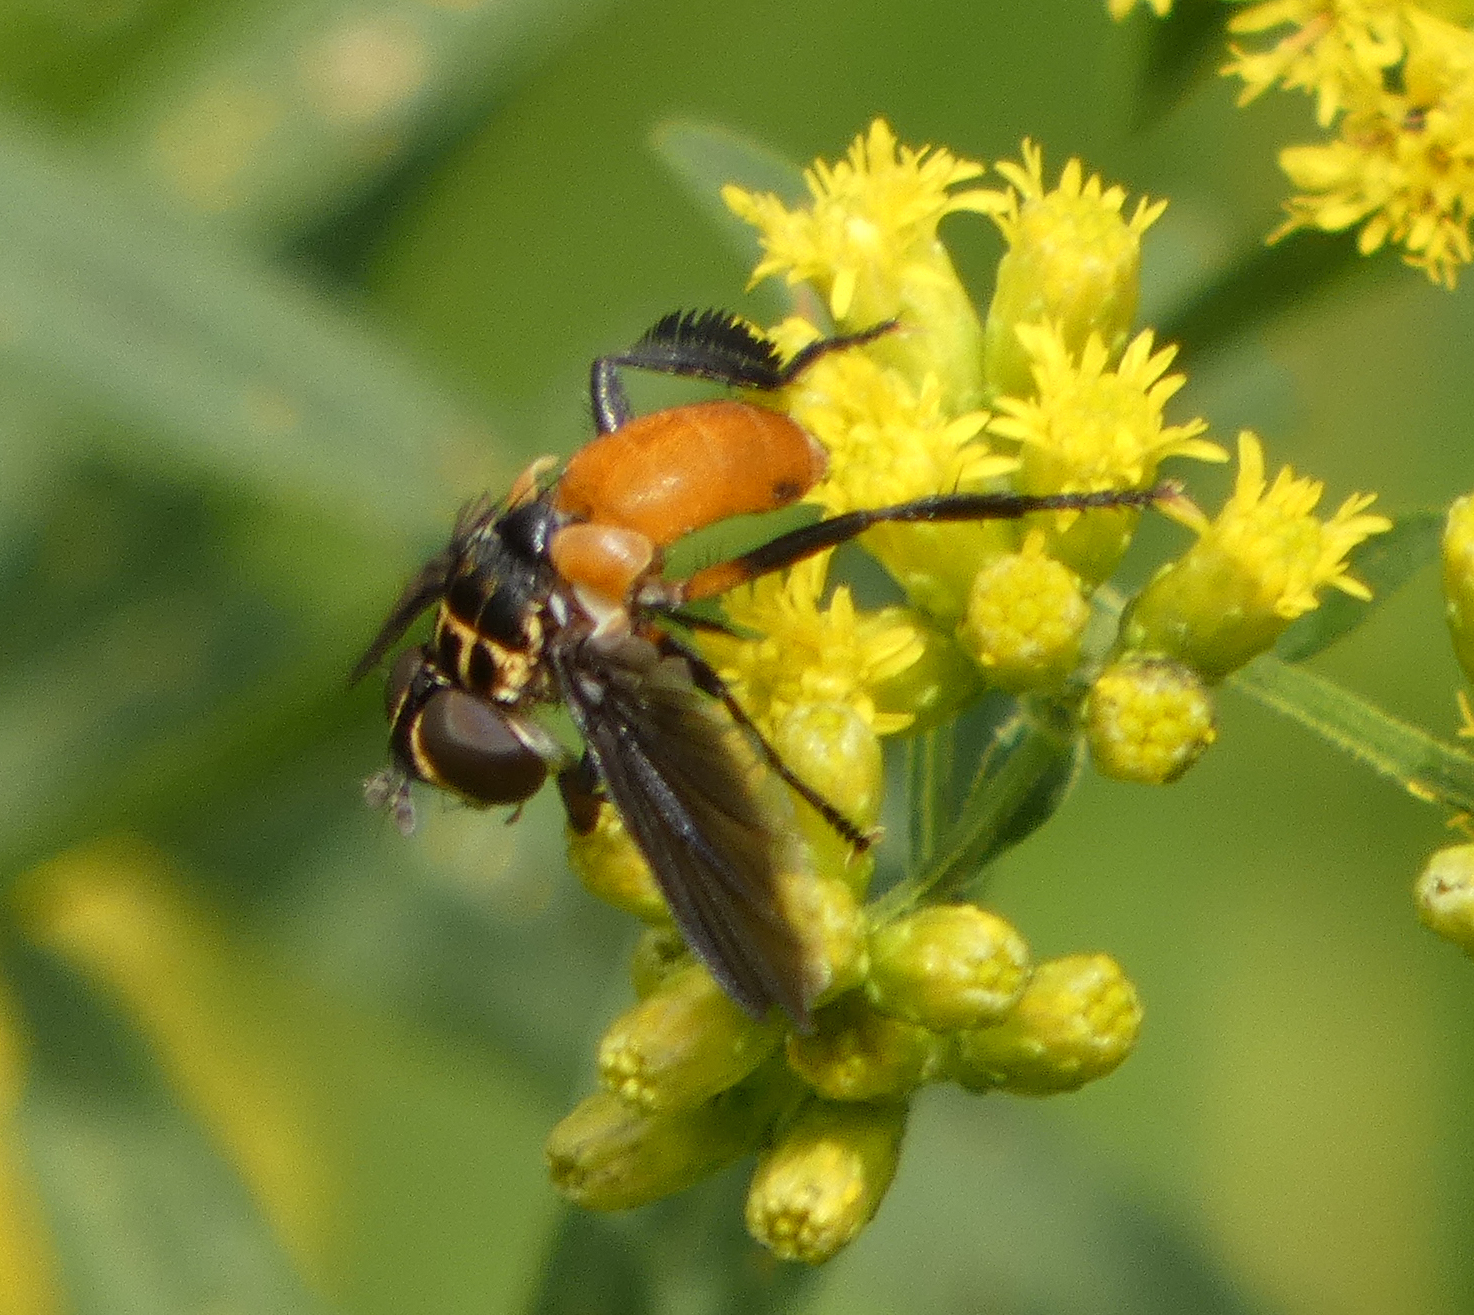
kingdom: Animalia
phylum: Arthropoda
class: Insecta
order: Diptera
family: Tachinidae
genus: Trichopoda
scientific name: Trichopoda pennipes
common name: Tachinid fly
